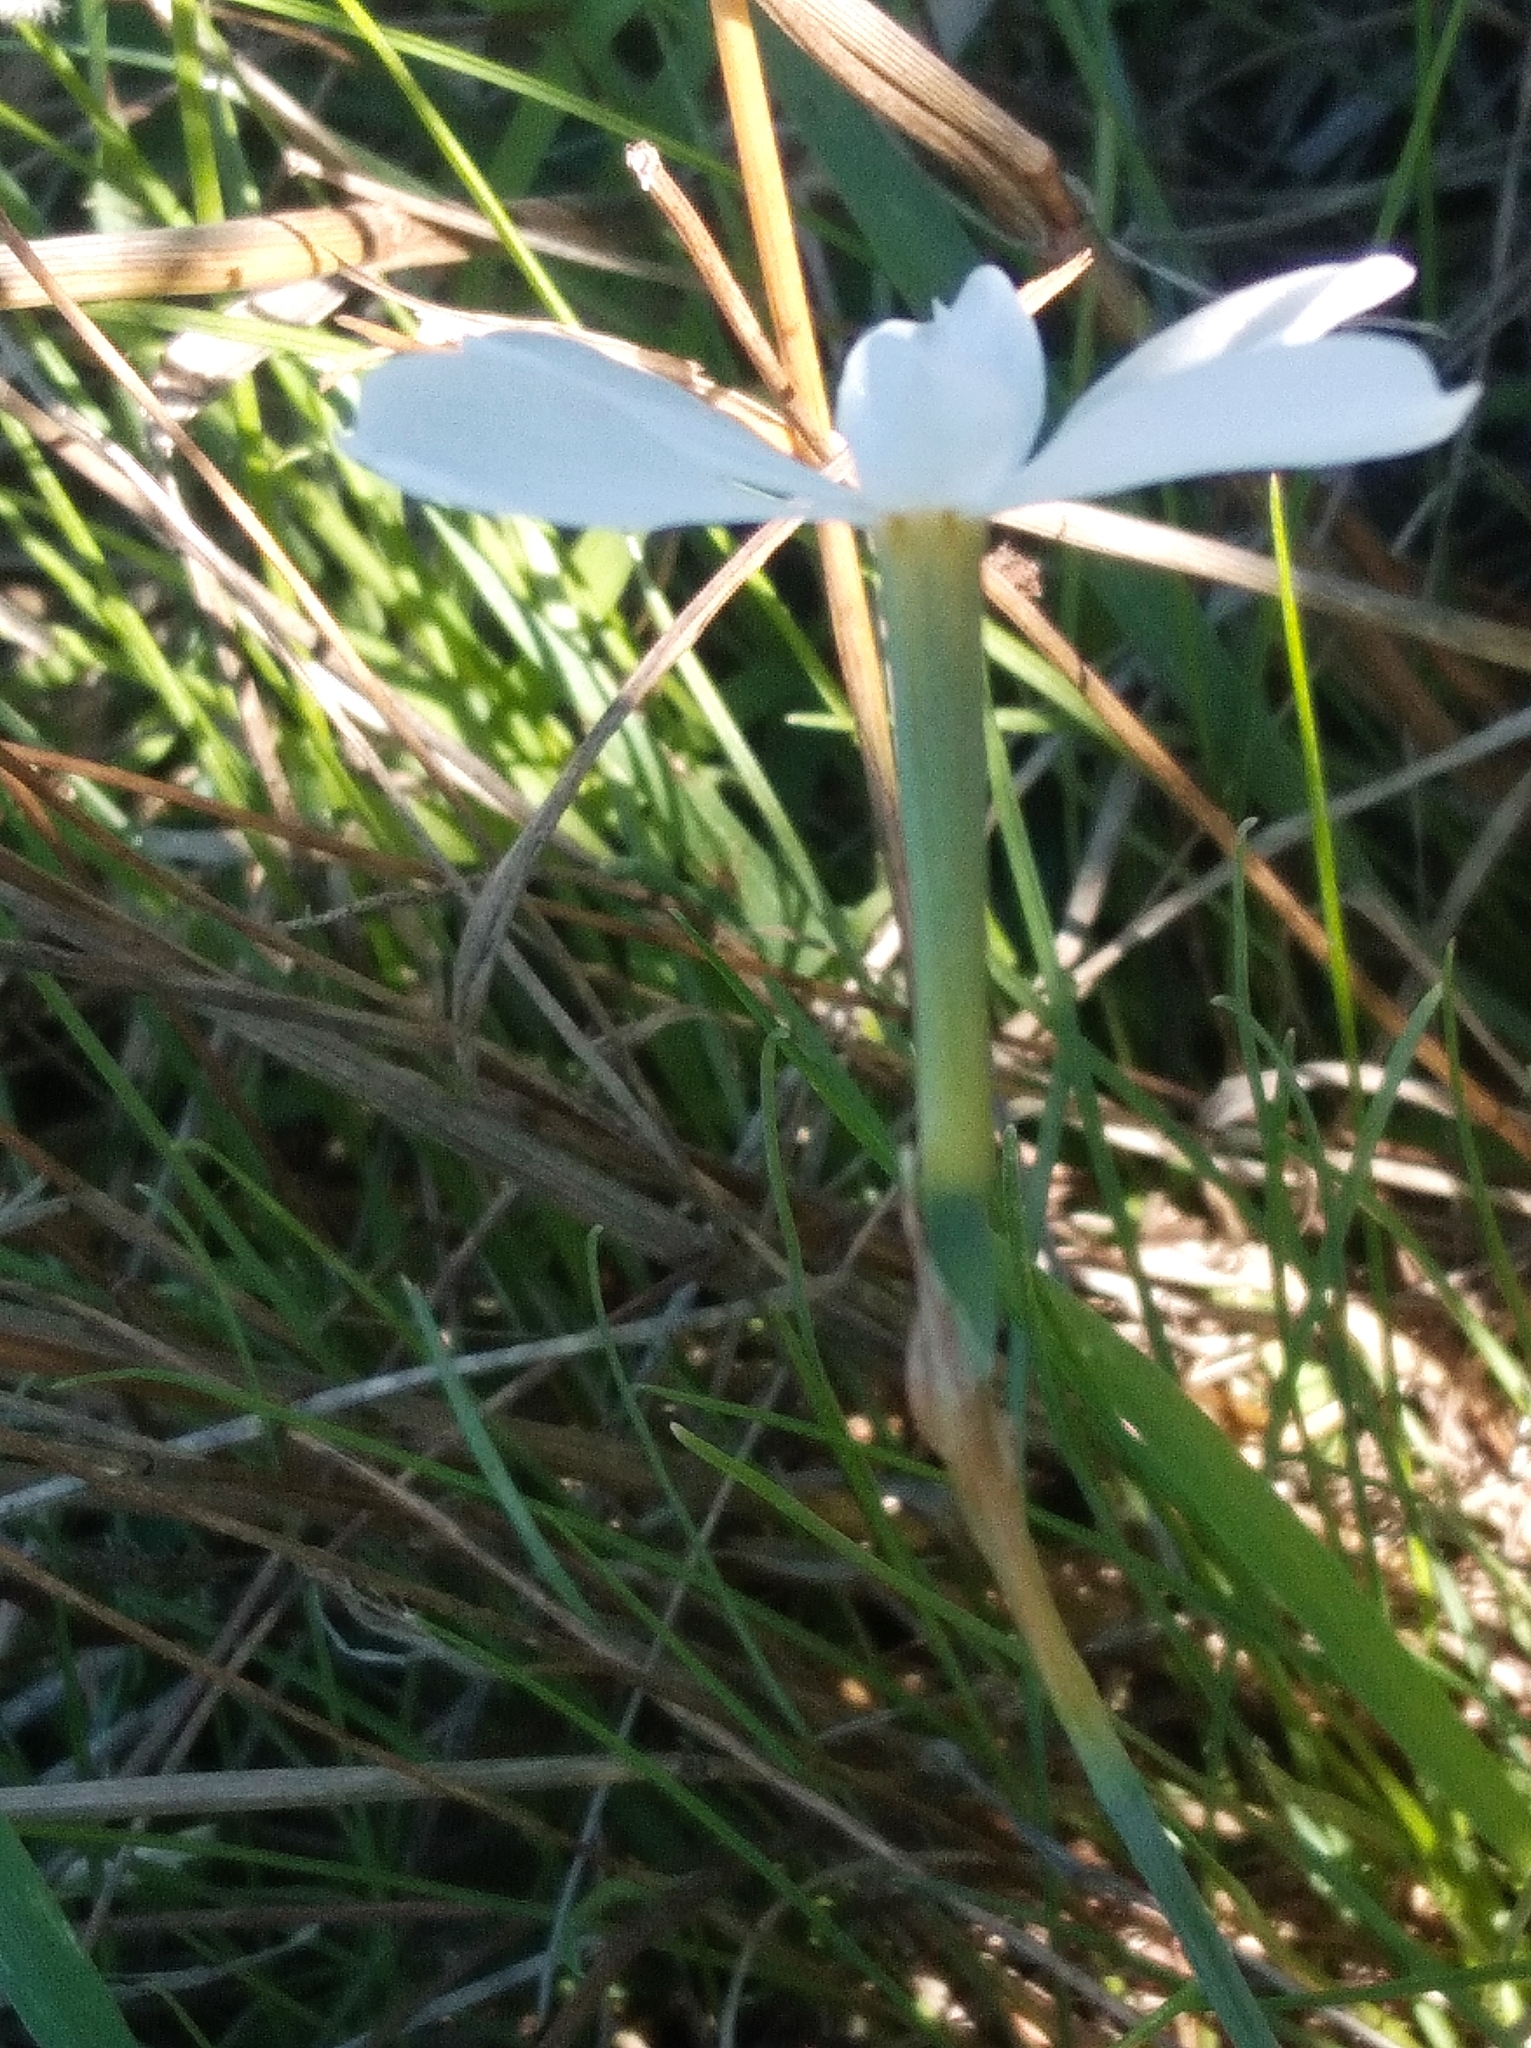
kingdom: Plantae
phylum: Tracheophyta
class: Liliopsida
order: Asparagales
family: Amaryllidaceae
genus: Narcissus
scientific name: Narcissus deficiens
